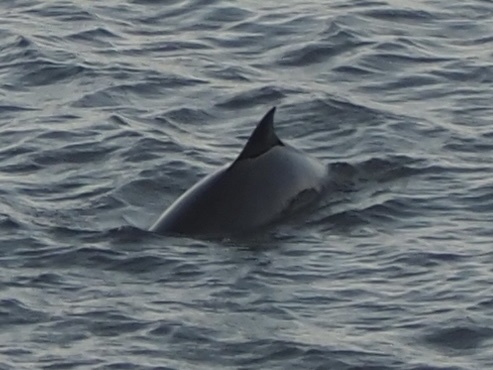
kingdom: Animalia
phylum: Chordata
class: Mammalia
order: Cetacea
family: Phocoenidae
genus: Phocoena
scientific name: Phocoena phocoena
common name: Harbor porpoise
